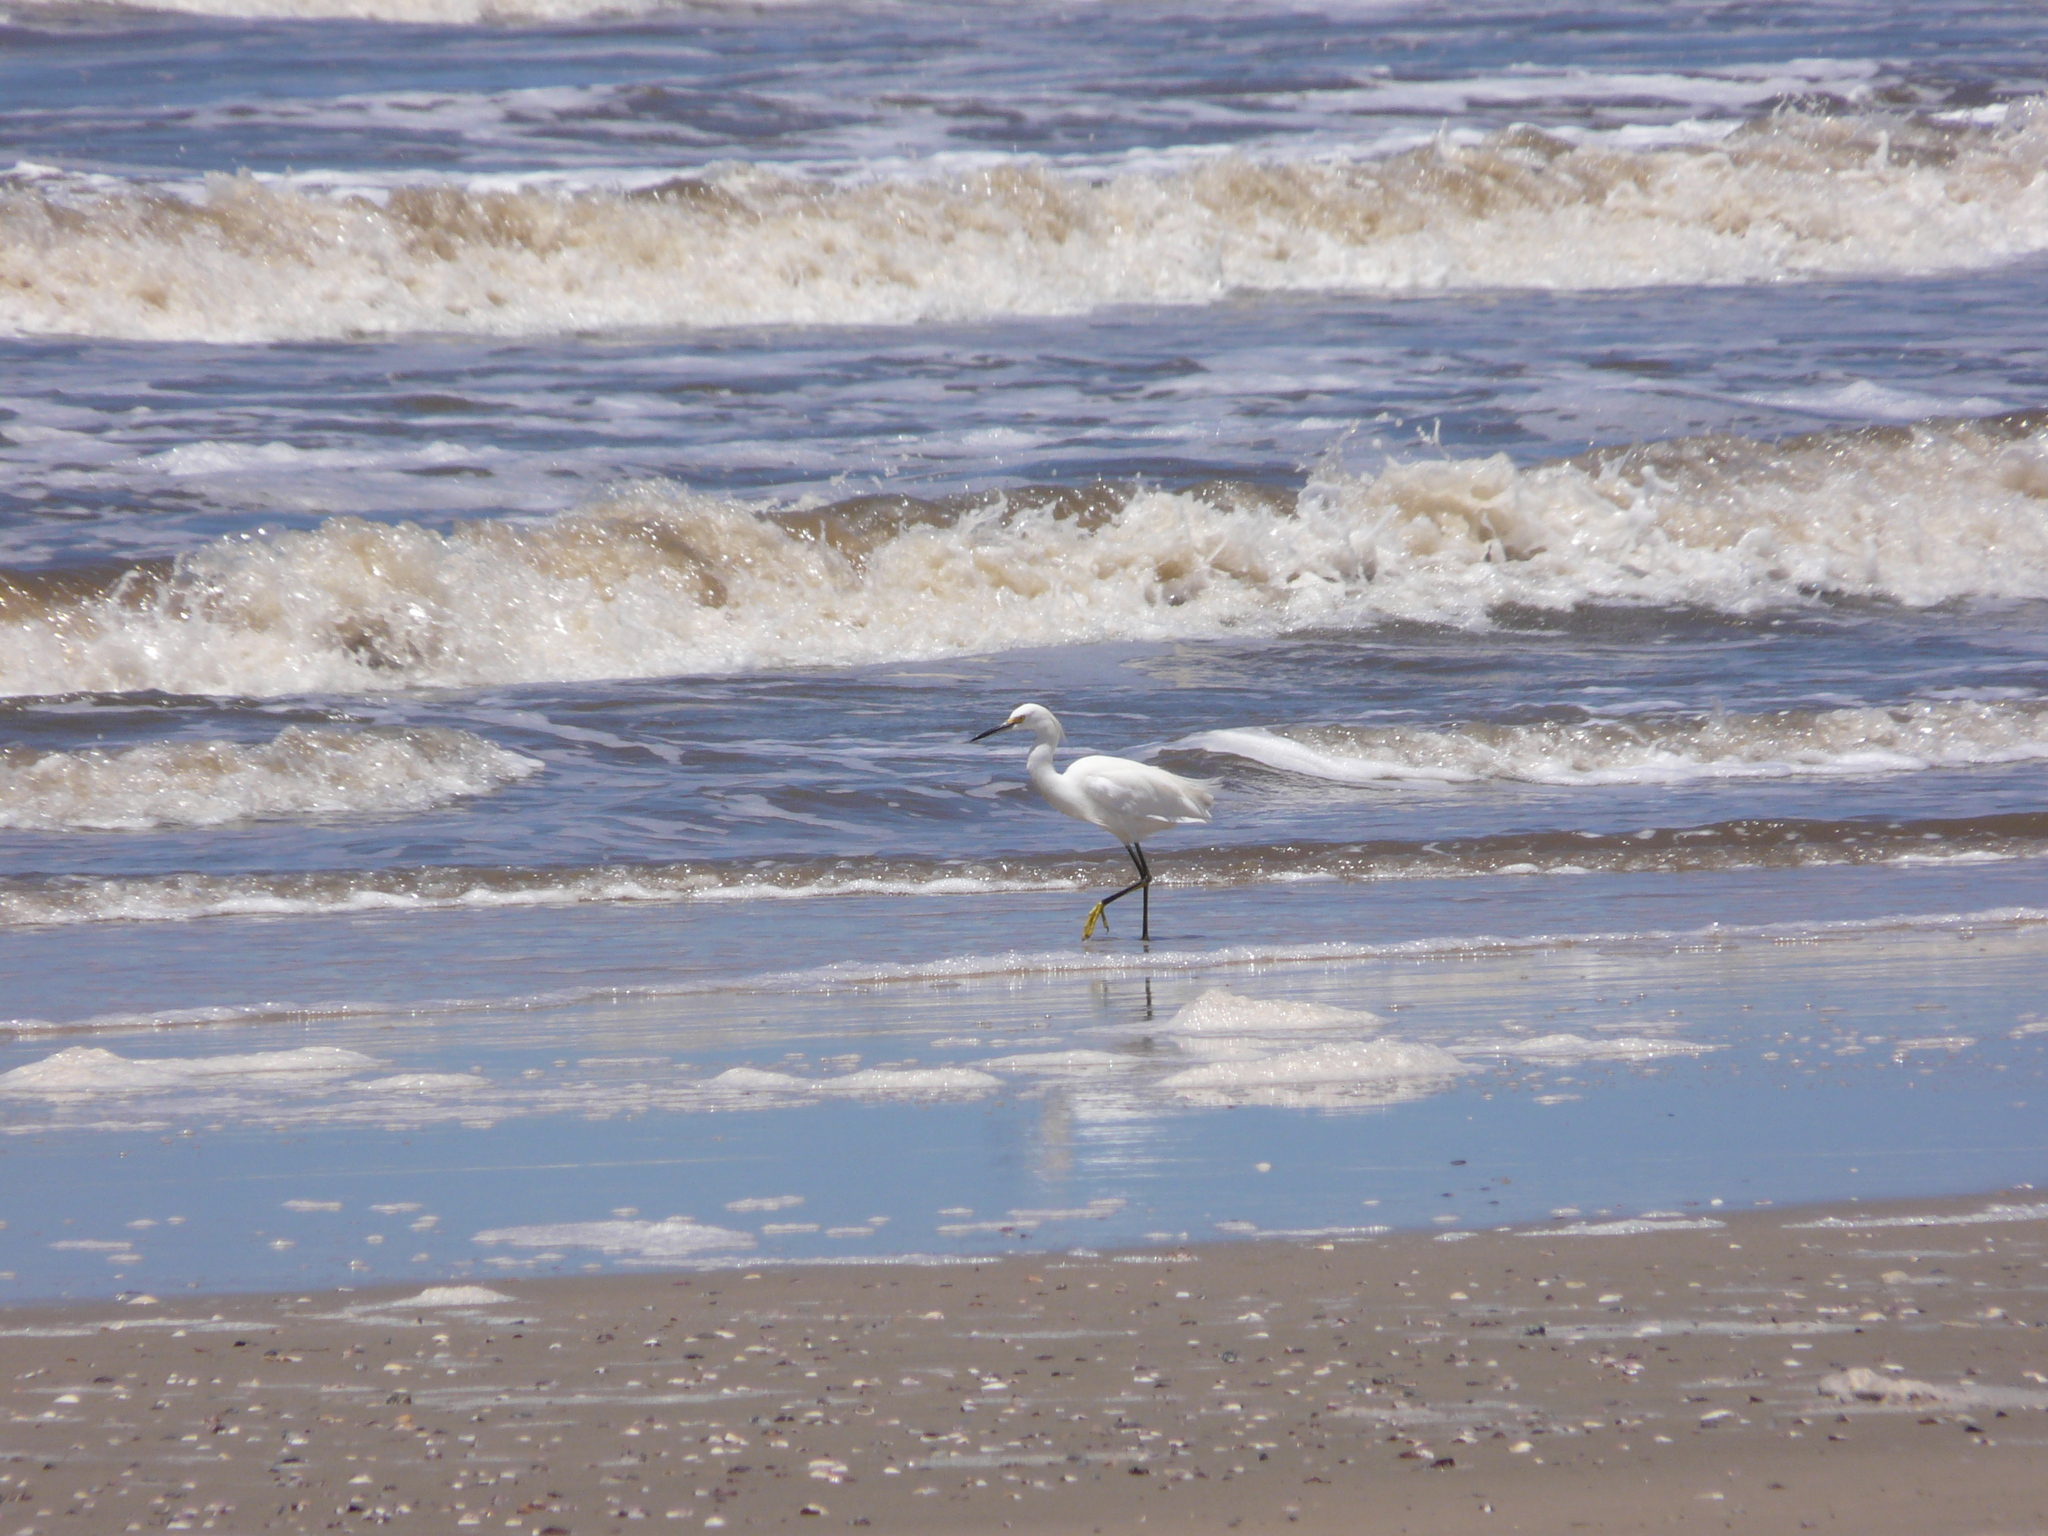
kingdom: Animalia
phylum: Chordata
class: Aves
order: Pelecaniformes
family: Ardeidae
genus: Egretta
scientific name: Egretta thula
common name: Snowy egret
